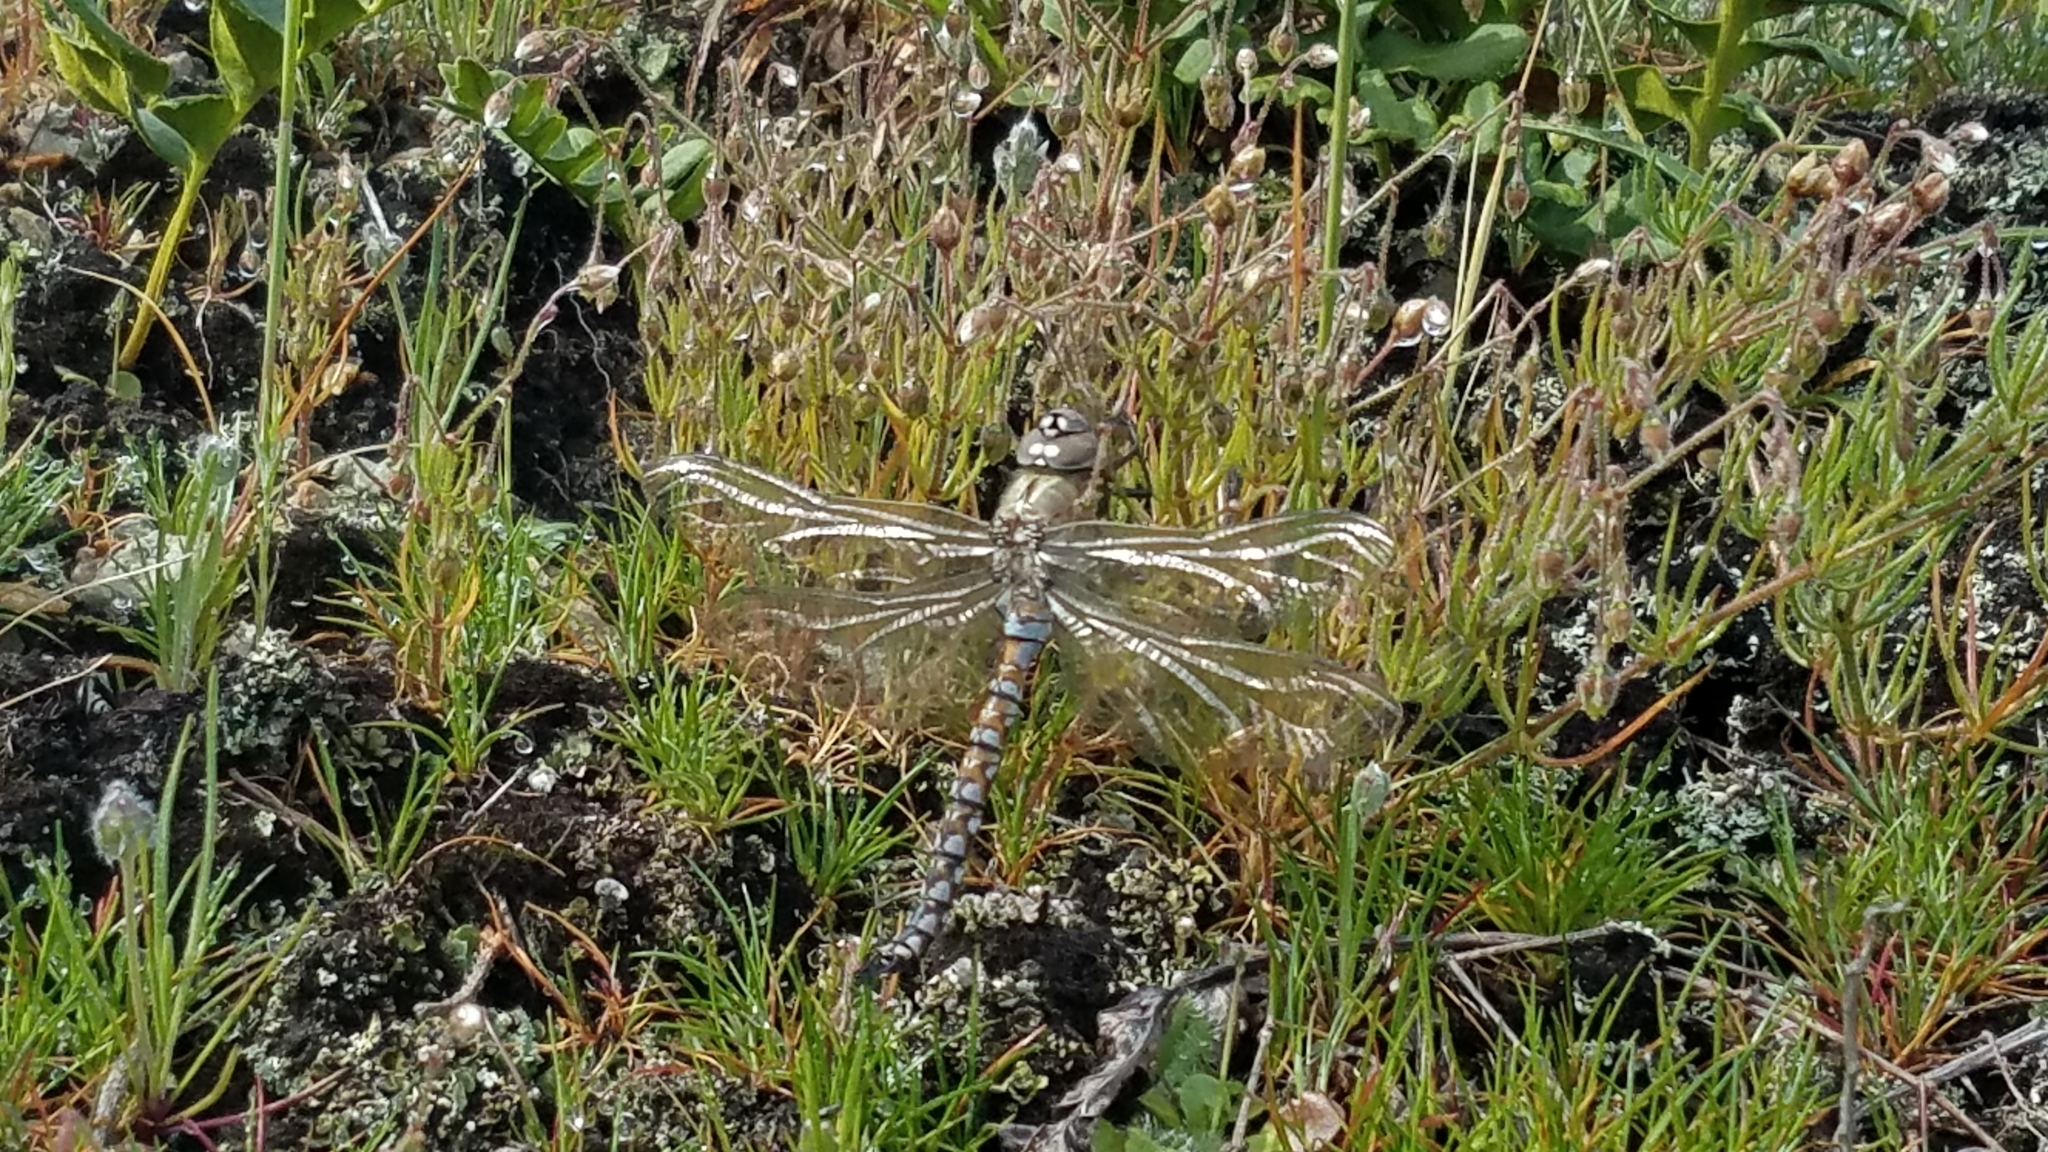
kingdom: Animalia
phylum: Arthropoda
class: Insecta
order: Odonata
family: Aeshnidae
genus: Rhionaeschna
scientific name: Rhionaeschna californica
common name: California darner
